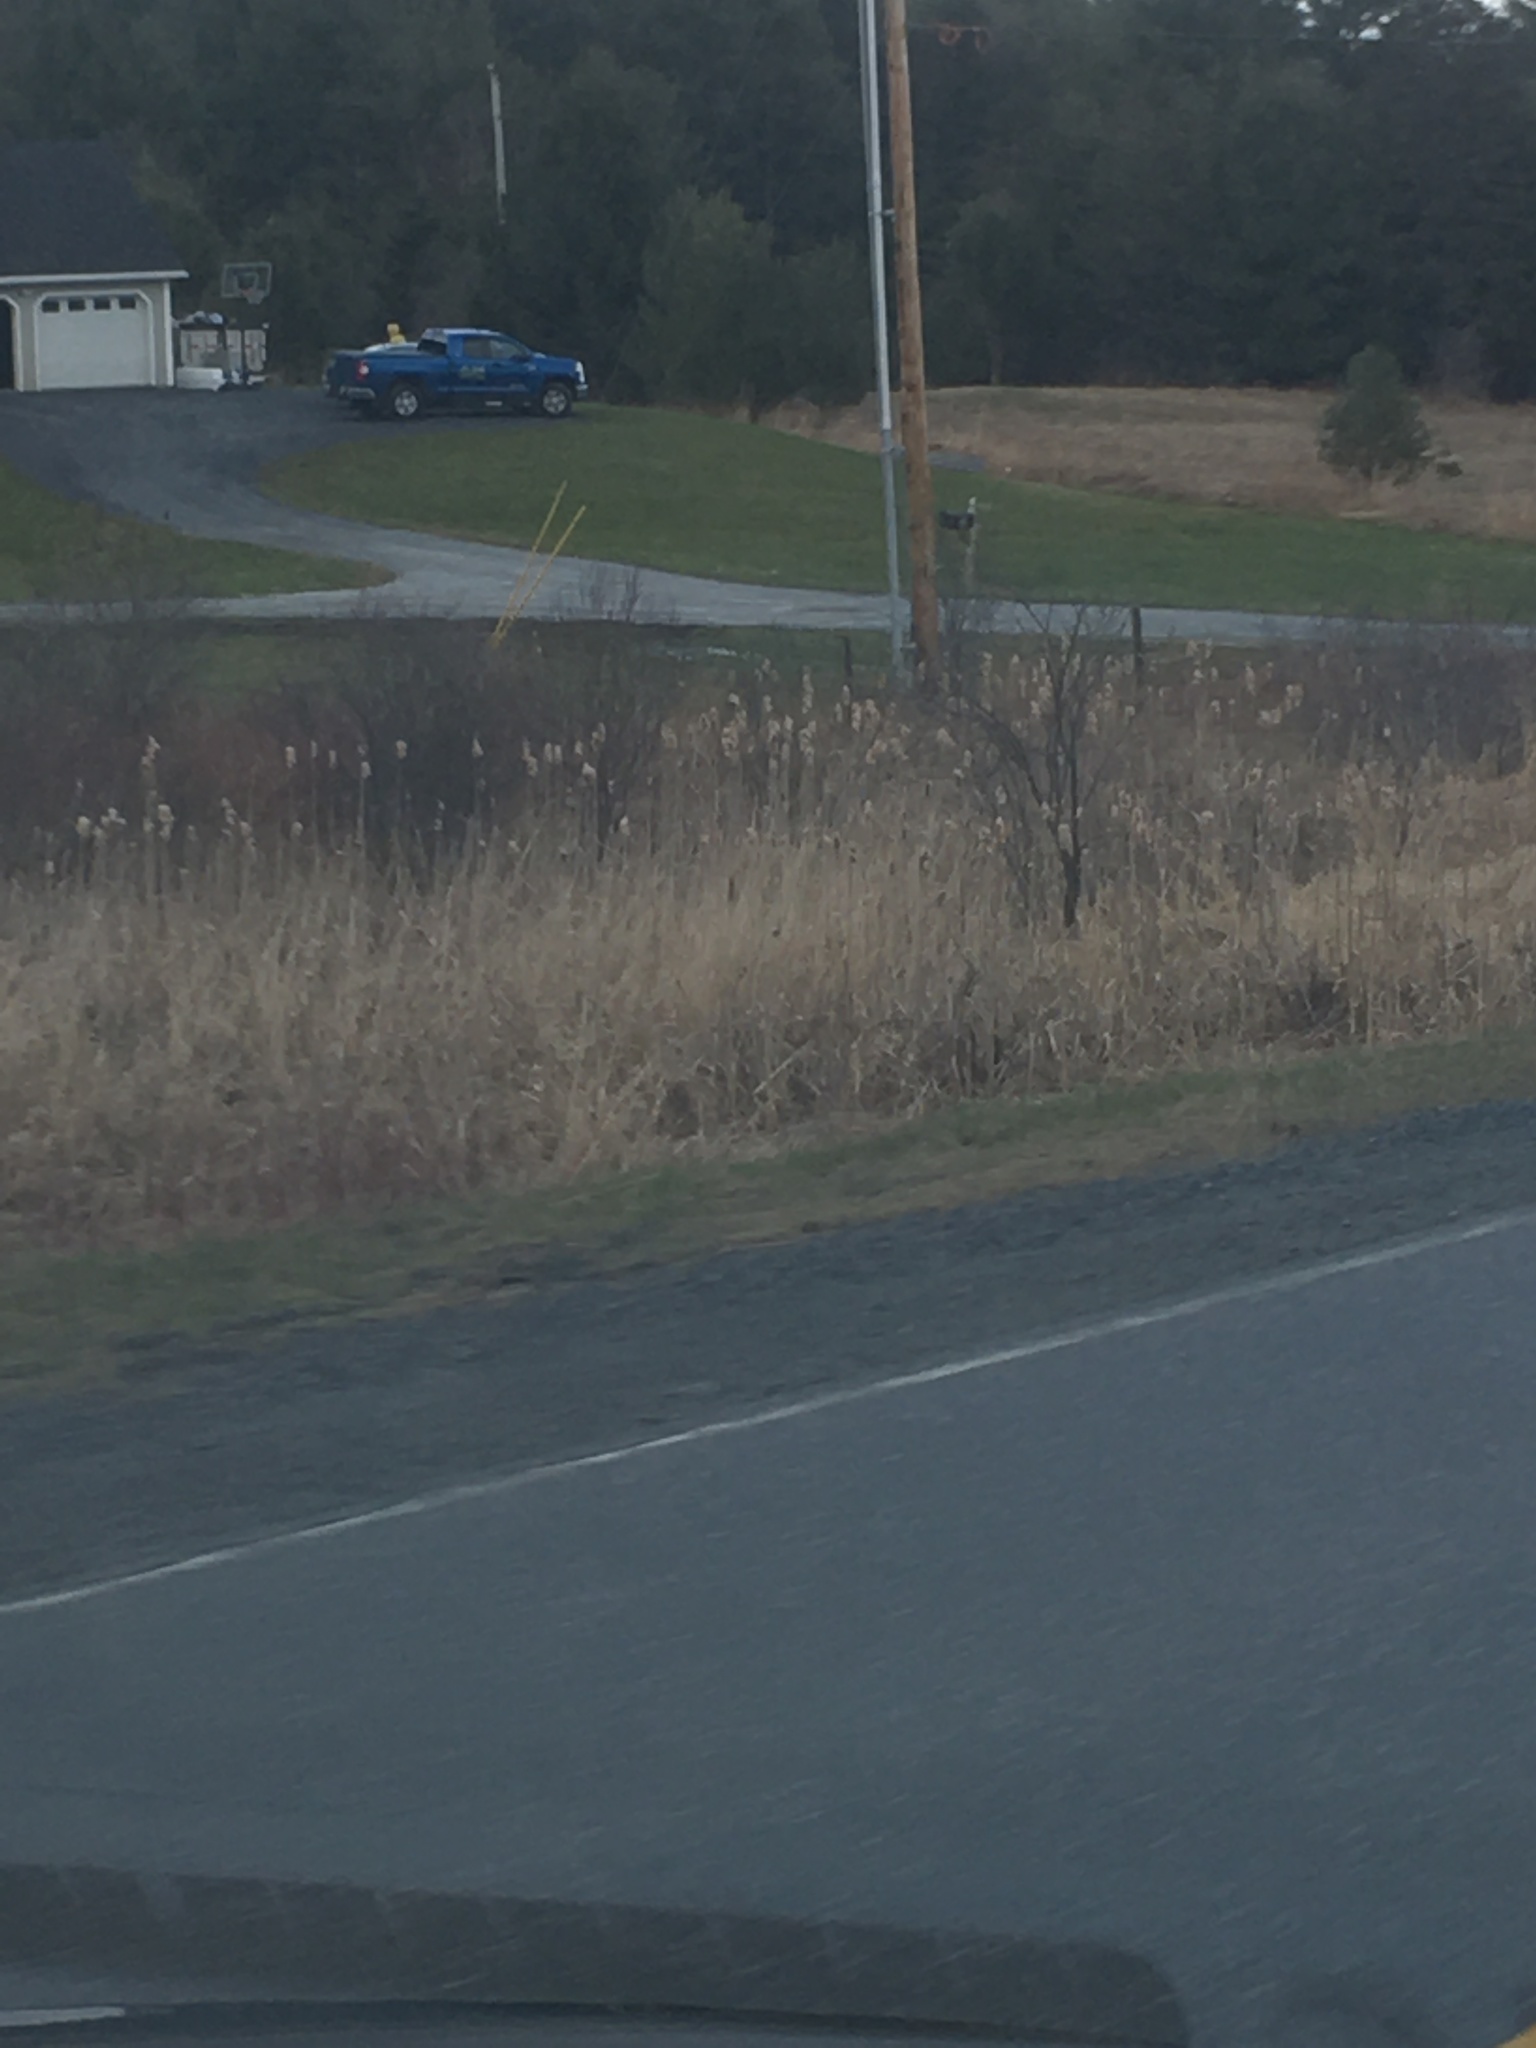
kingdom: Plantae
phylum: Tracheophyta
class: Liliopsida
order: Poales
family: Typhaceae
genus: Typha
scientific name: Typha latifolia
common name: Broadleaf cattail
